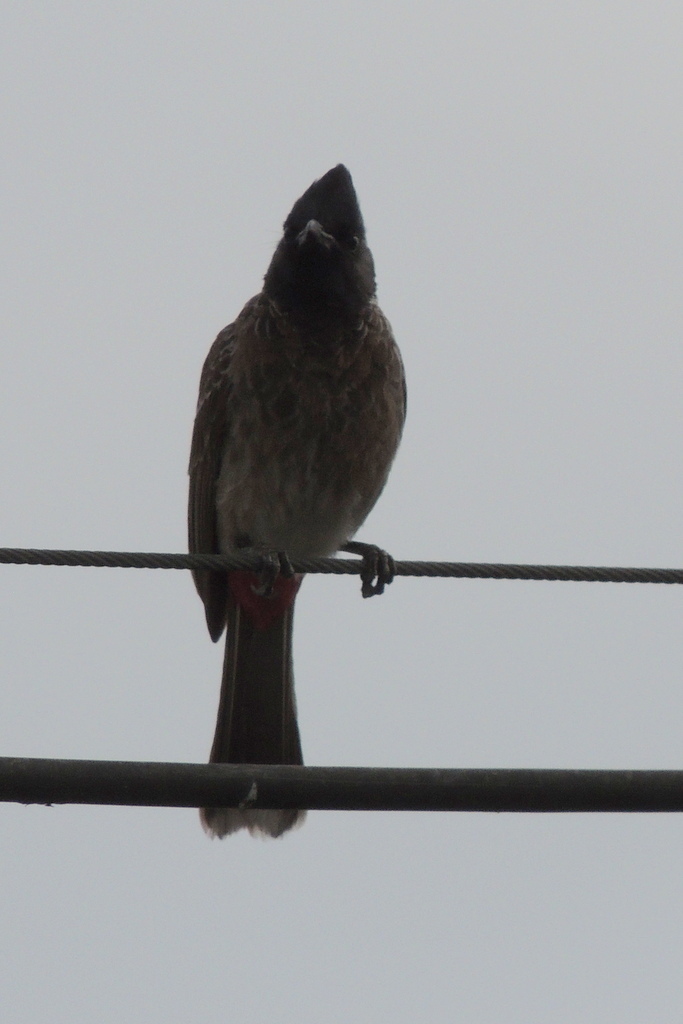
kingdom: Animalia
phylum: Chordata
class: Aves
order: Passeriformes
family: Pycnonotidae
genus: Pycnonotus
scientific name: Pycnonotus cafer
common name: Red-vented bulbul
